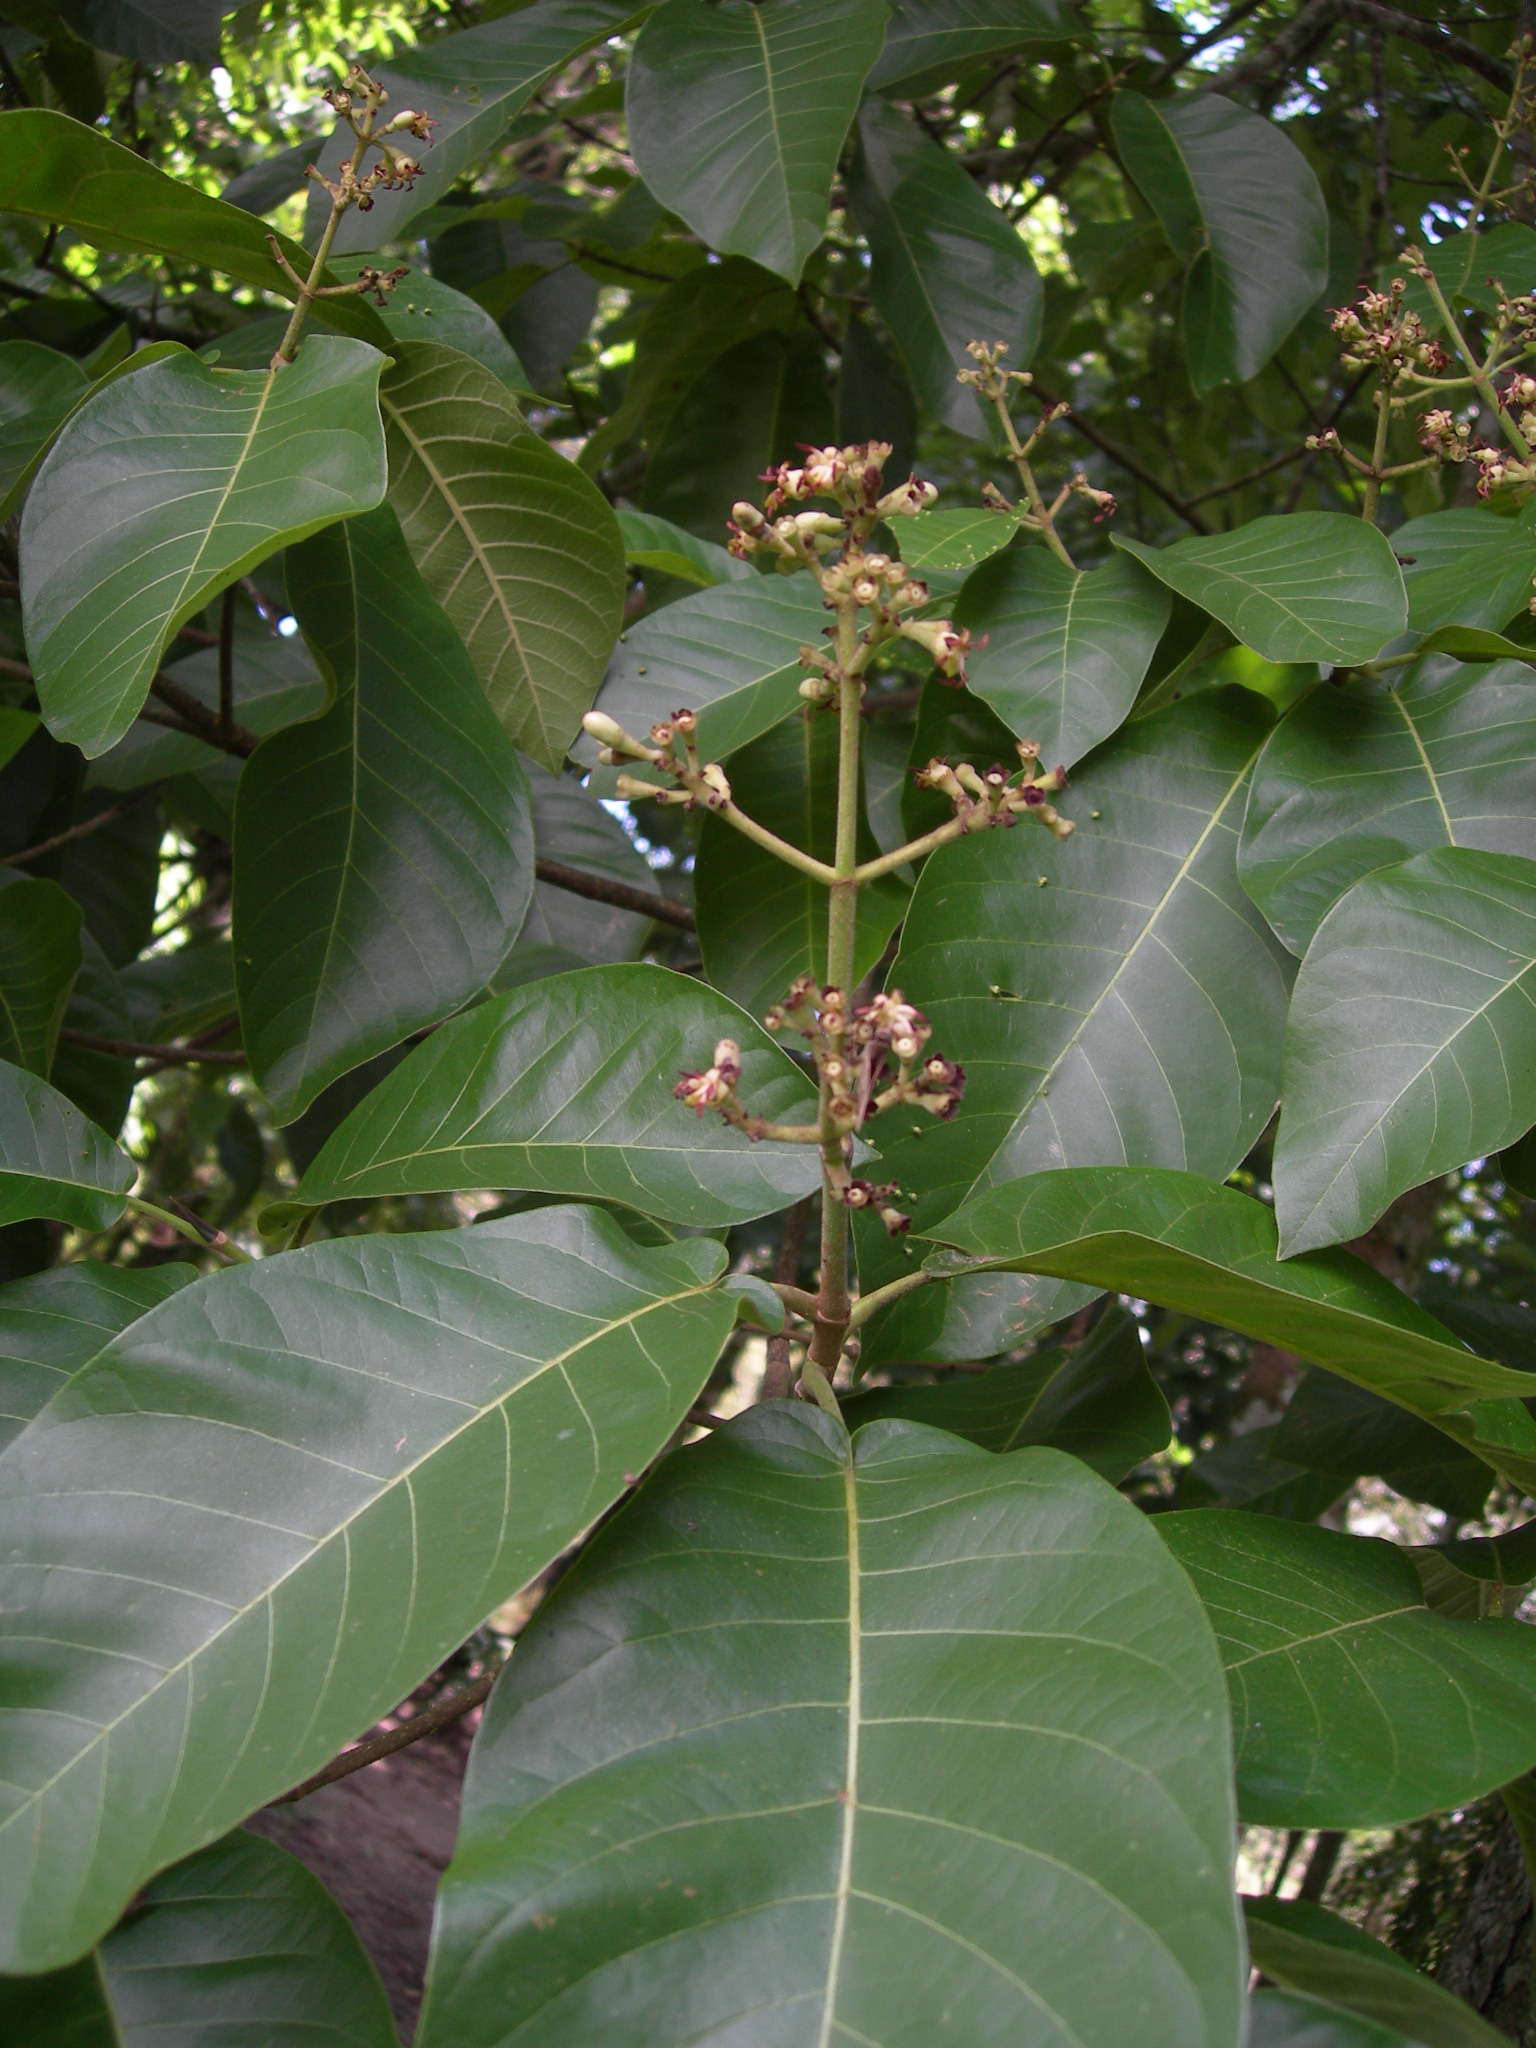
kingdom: Plantae
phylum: Tracheophyta
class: Magnoliopsida
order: Gentianales
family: Rubiaceae
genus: Simira
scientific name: Simira salvadorensis
